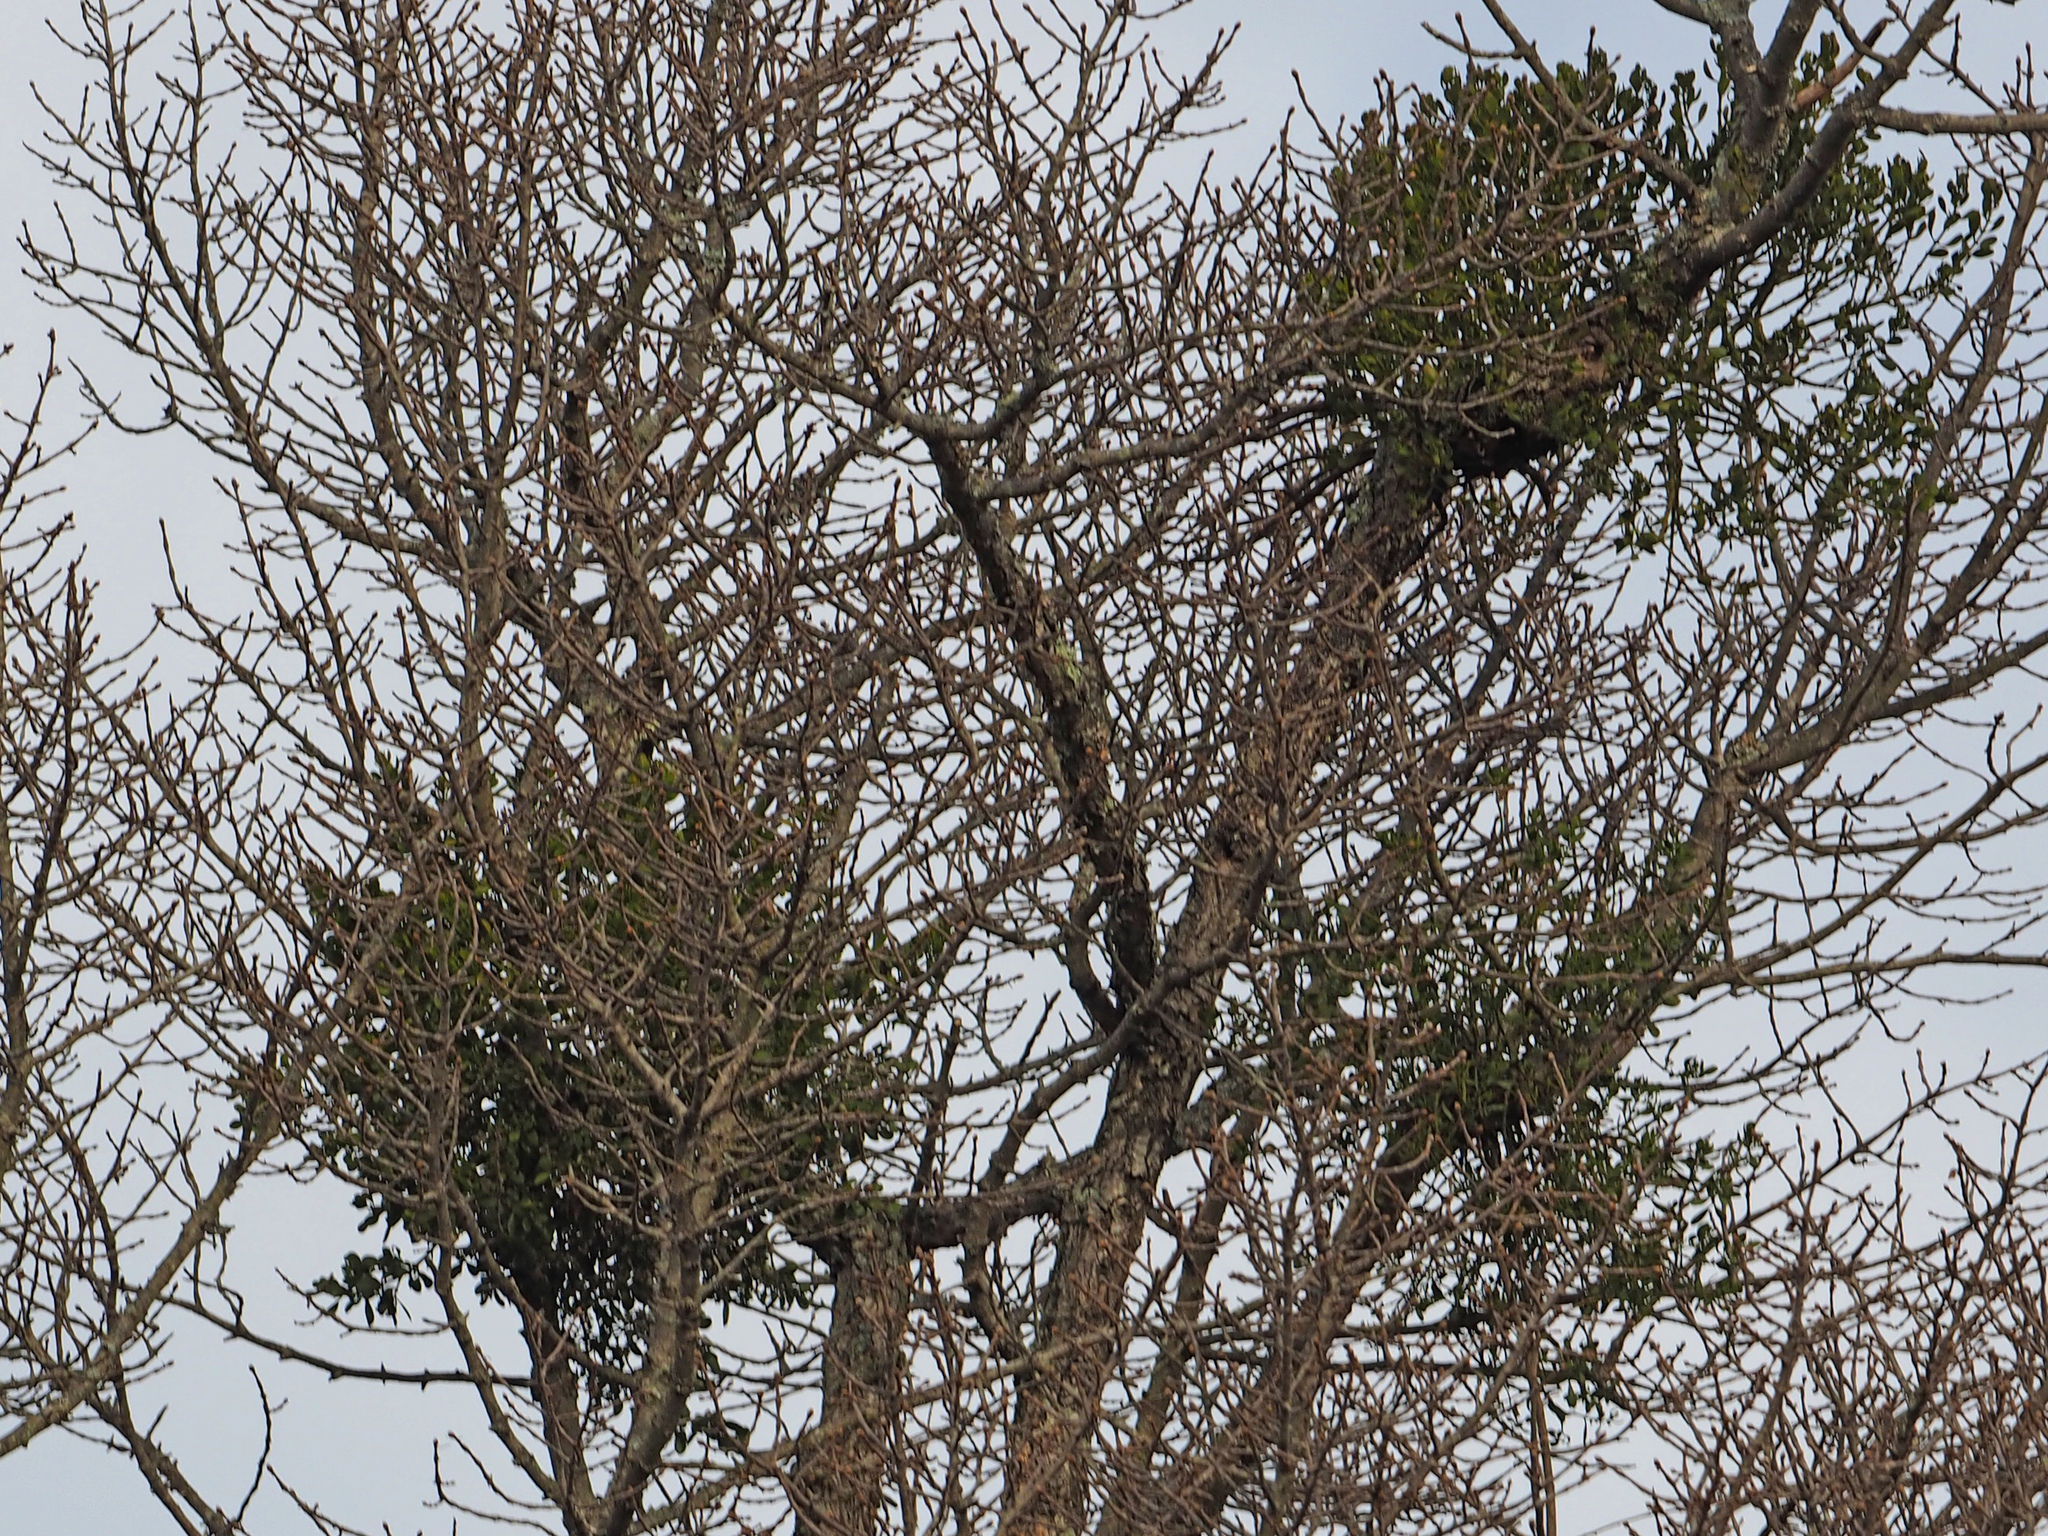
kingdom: Plantae
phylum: Tracheophyta
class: Magnoliopsida
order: Santalales
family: Viscaceae
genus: Phoradendron
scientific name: Phoradendron leucarpum
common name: Pacific mistletoe
